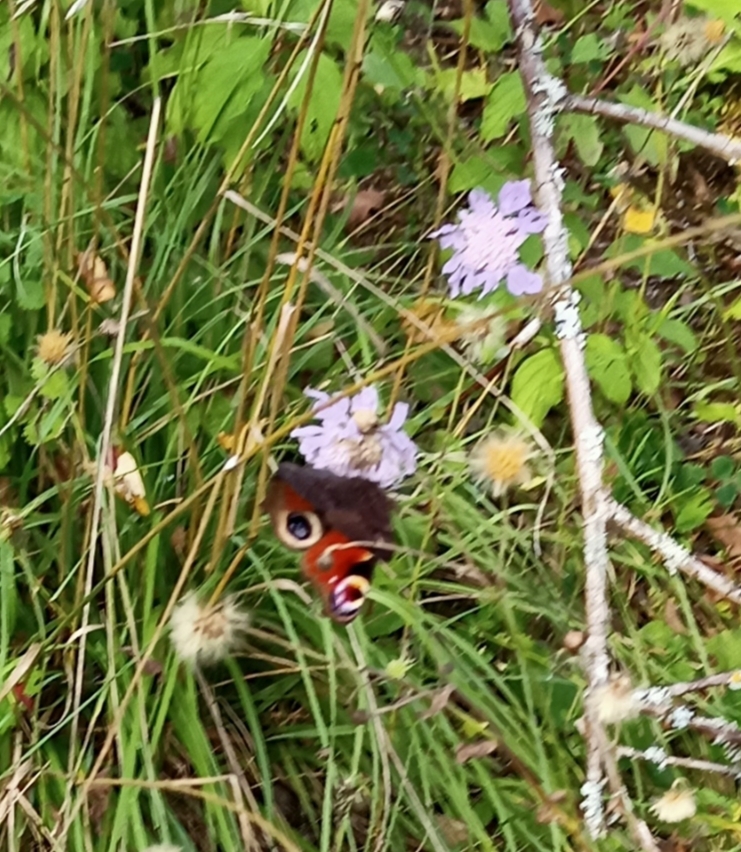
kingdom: Animalia
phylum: Arthropoda
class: Insecta
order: Lepidoptera
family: Nymphalidae
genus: Aglais
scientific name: Aglais io
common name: Peacock
